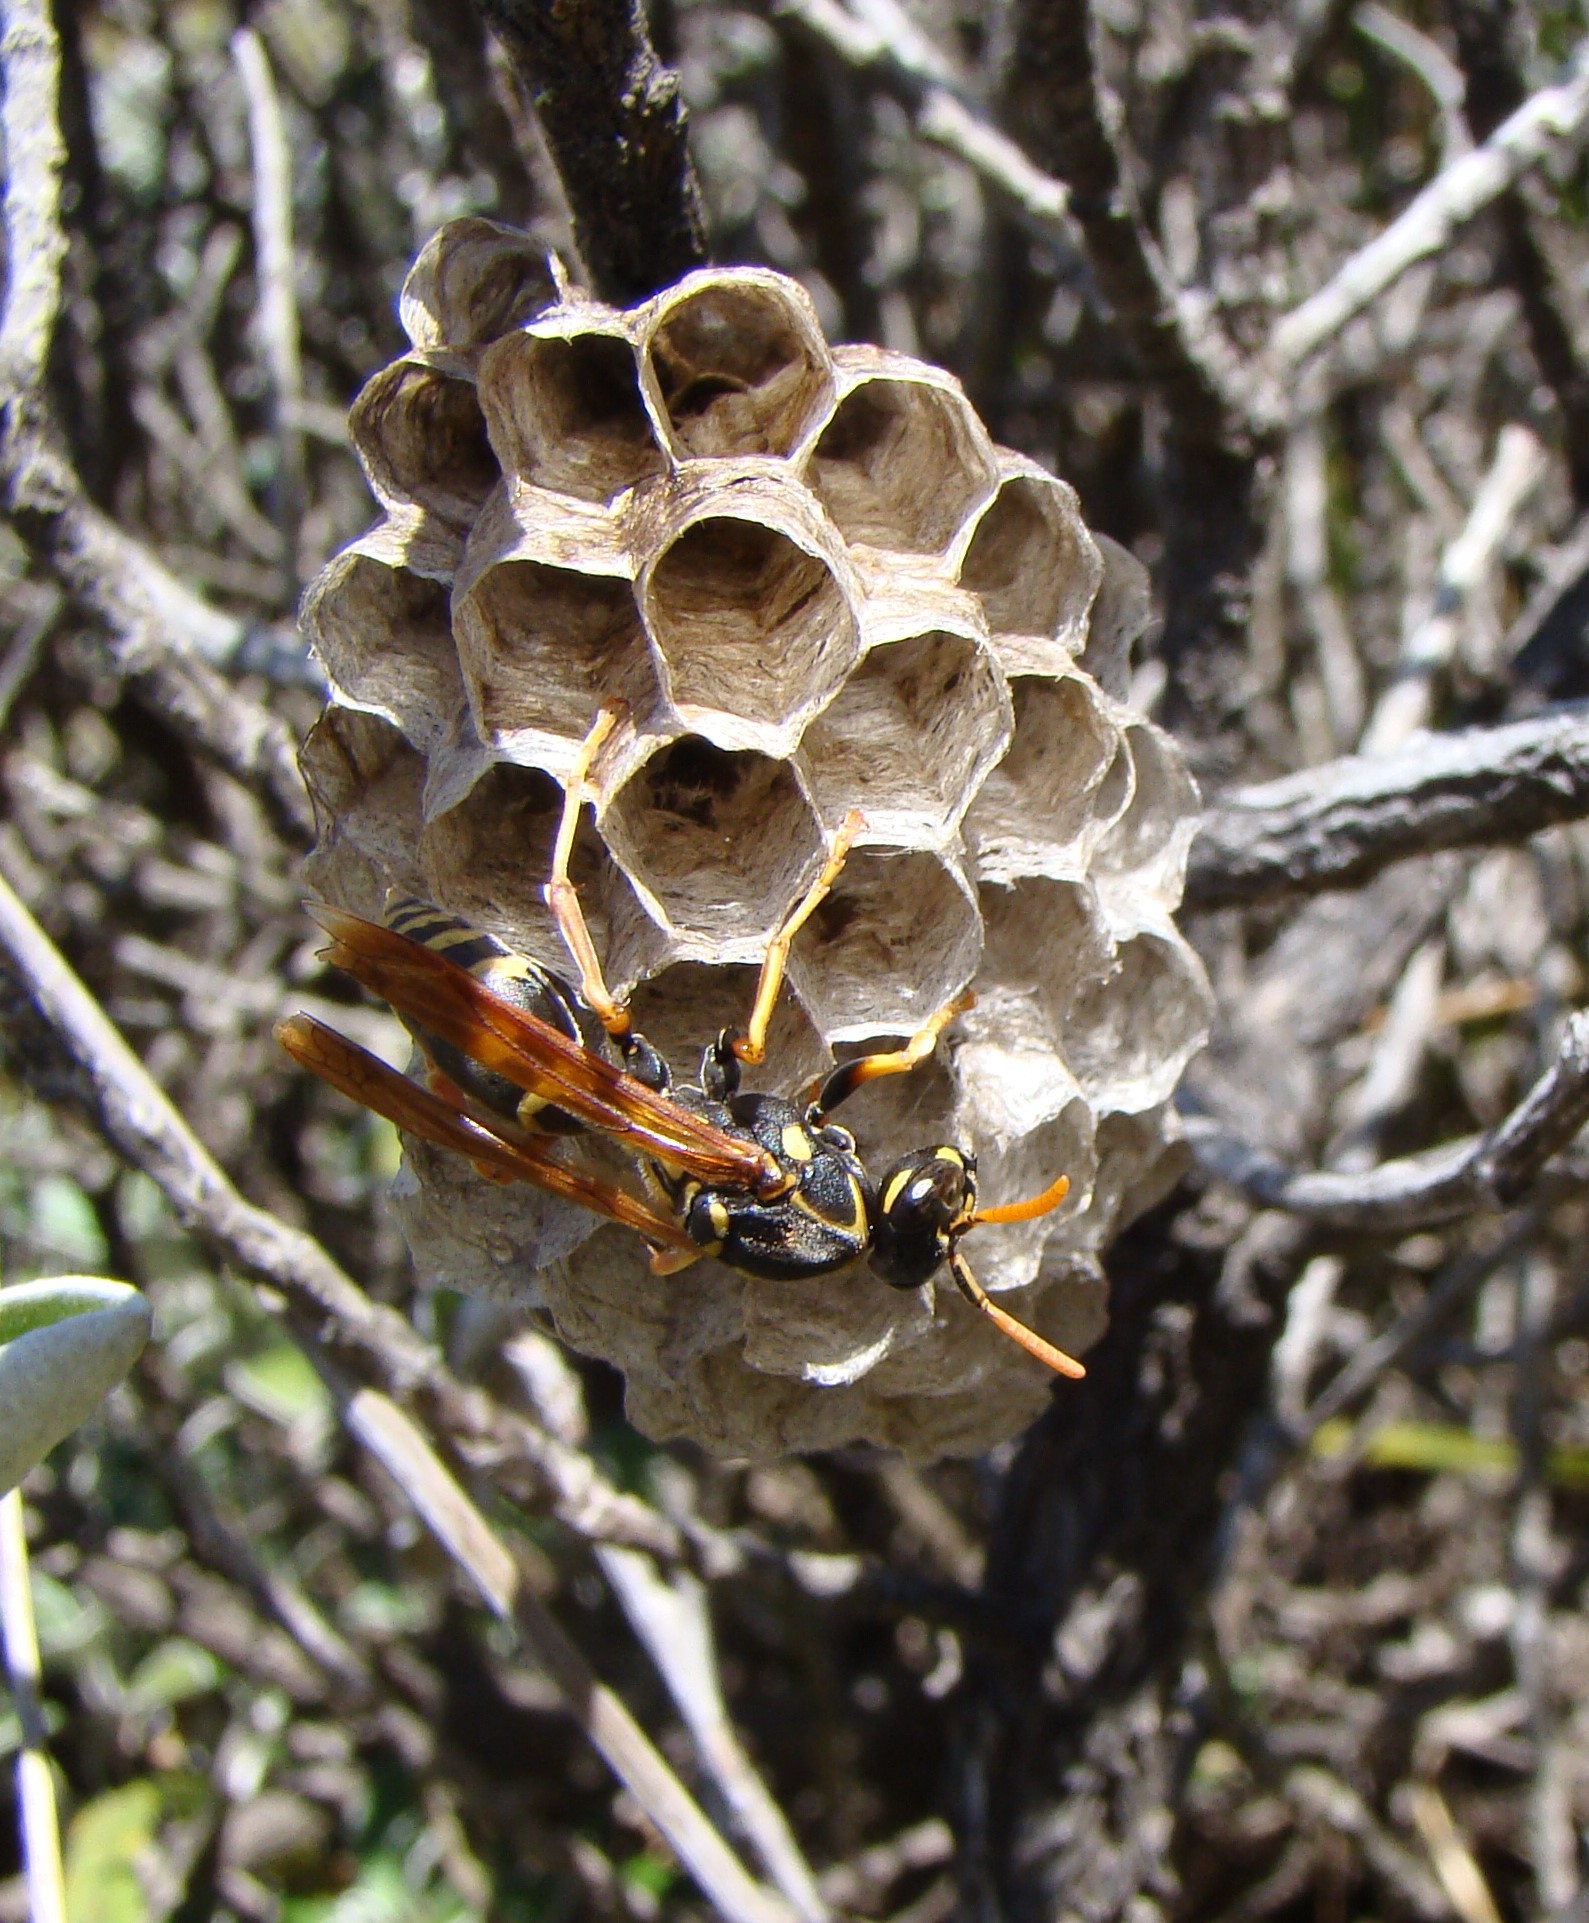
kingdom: Animalia
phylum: Arthropoda
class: Insecta
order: Hymenoptera
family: Eumenidae
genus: Polistes
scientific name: Polistes chinensis
